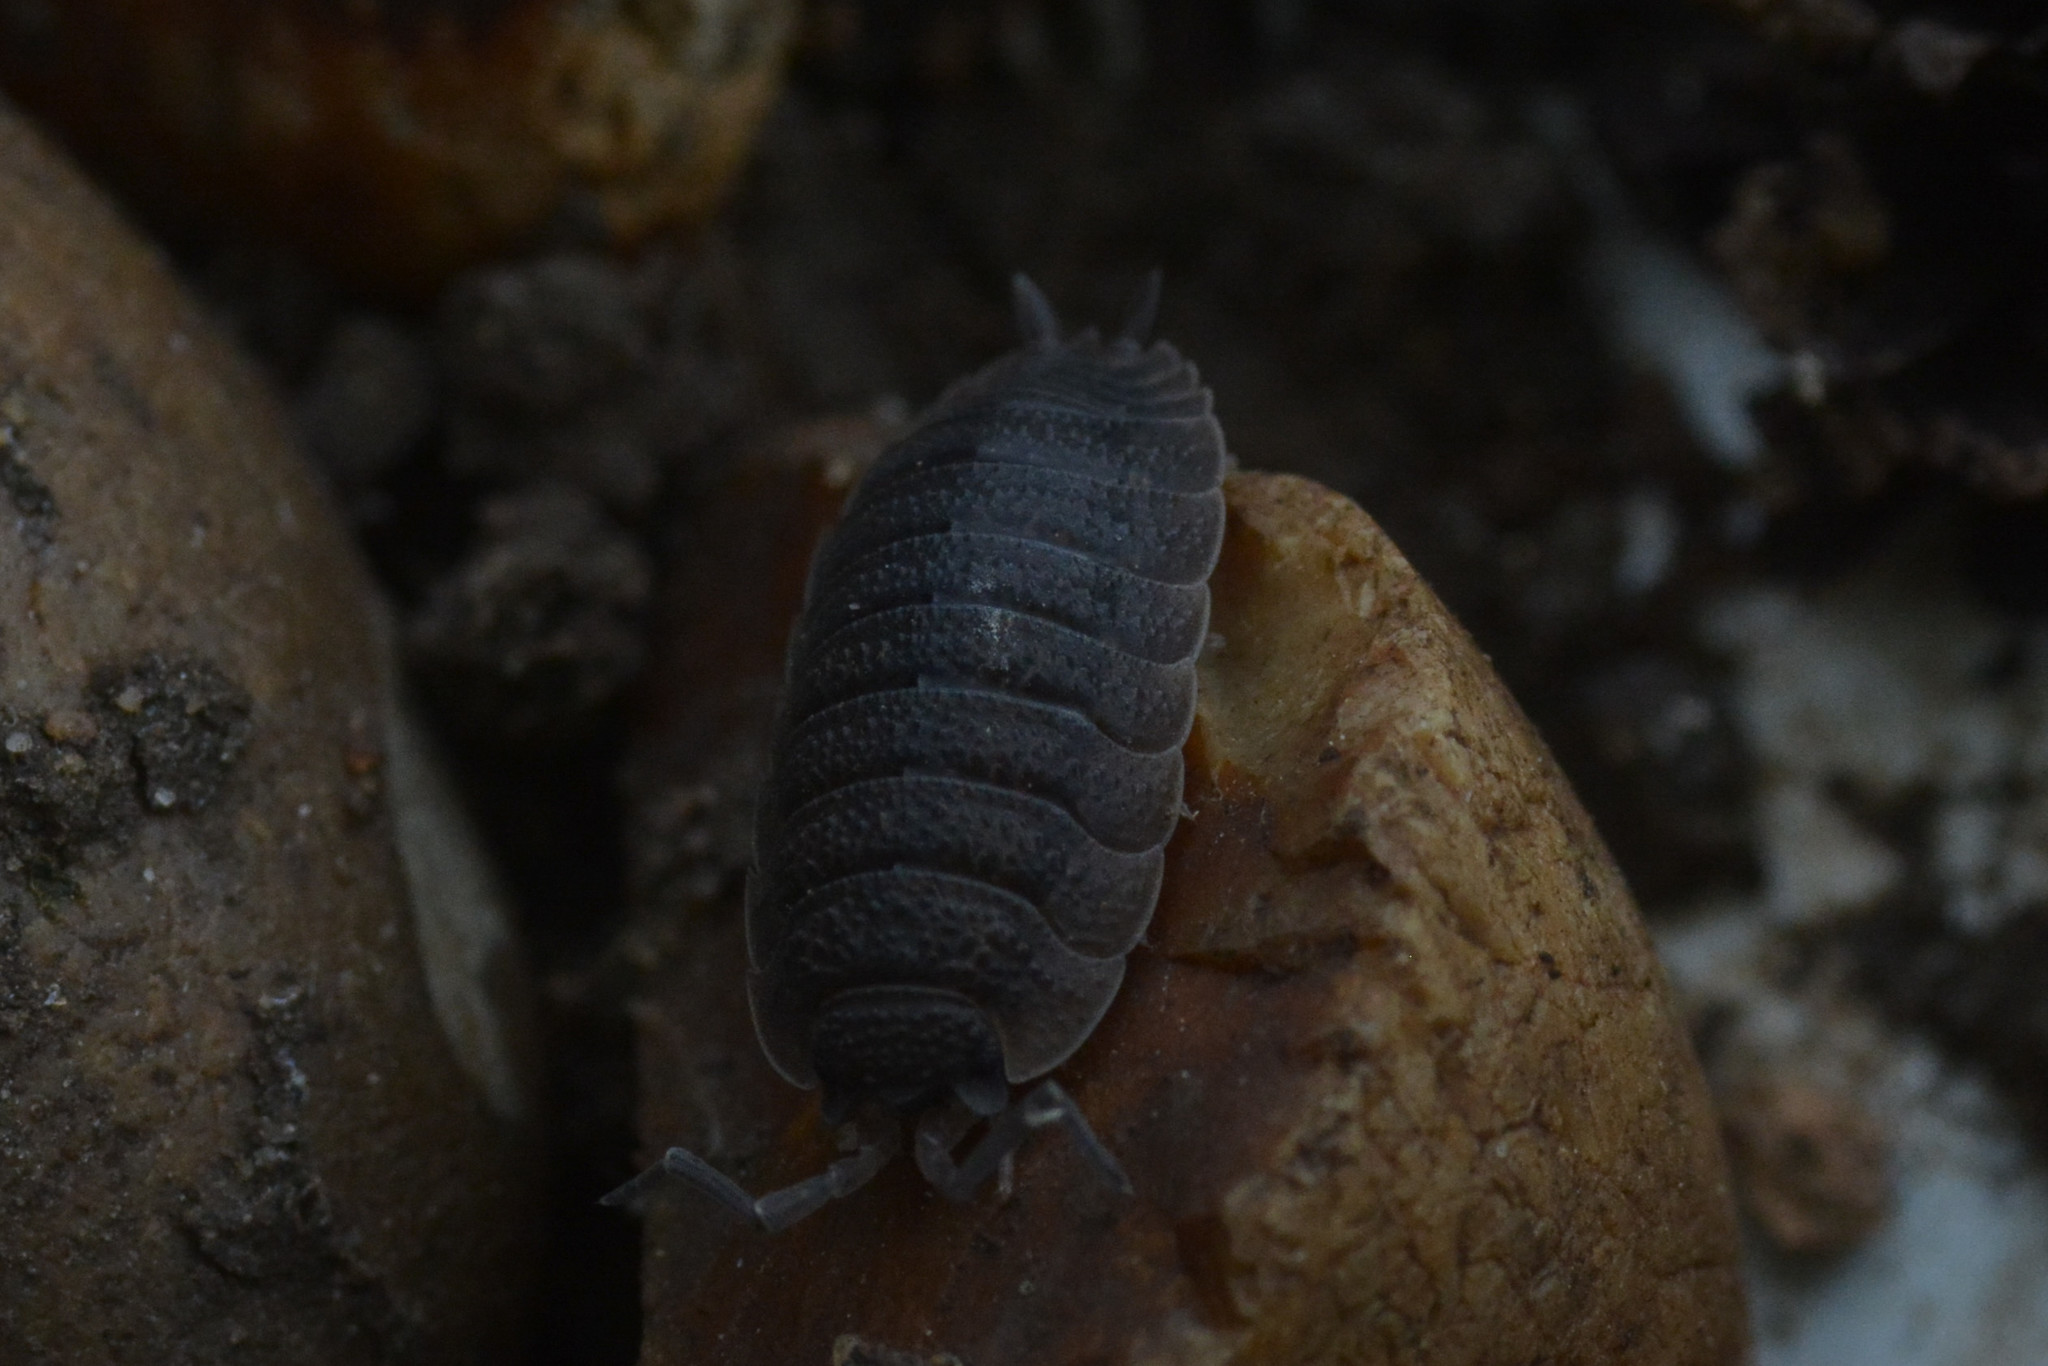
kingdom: Animalia
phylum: Arthropoda
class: Malacostraca
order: Isopoda
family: Porcellionidae
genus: Porcellio
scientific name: Porcellio scaber
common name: Common rough woodlouse
